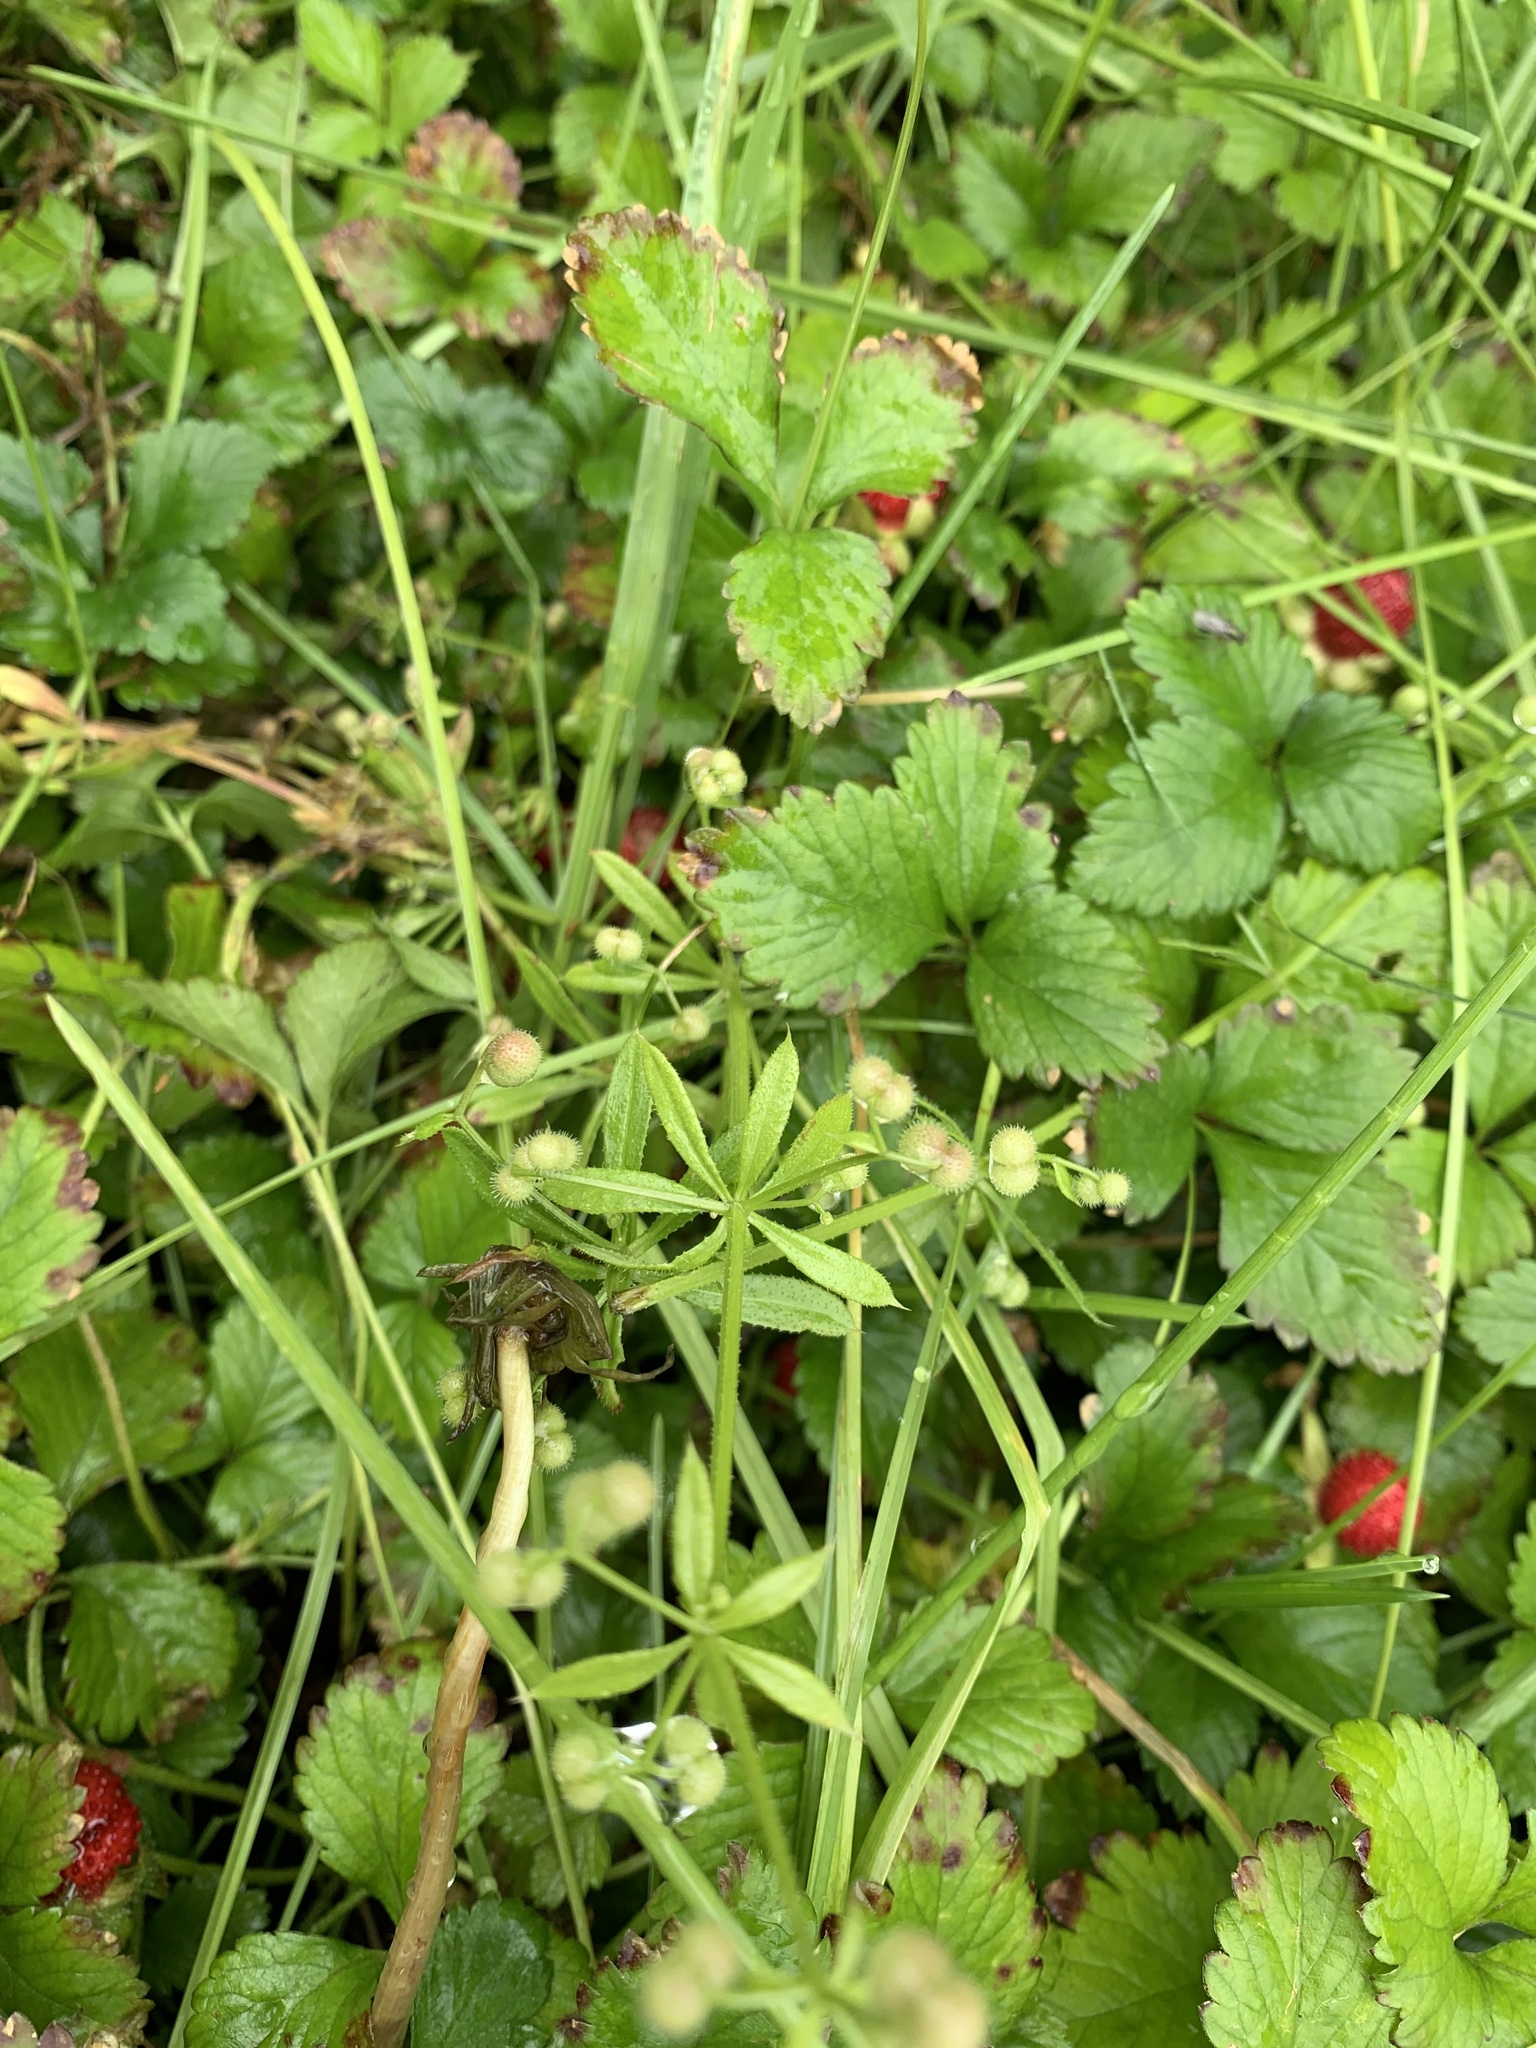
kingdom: Plantae
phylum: Tracheophyta
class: Magnoliopsida
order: Gentianales
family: Rubiaceae
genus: Galium
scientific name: Galium aparine
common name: Cleavers
